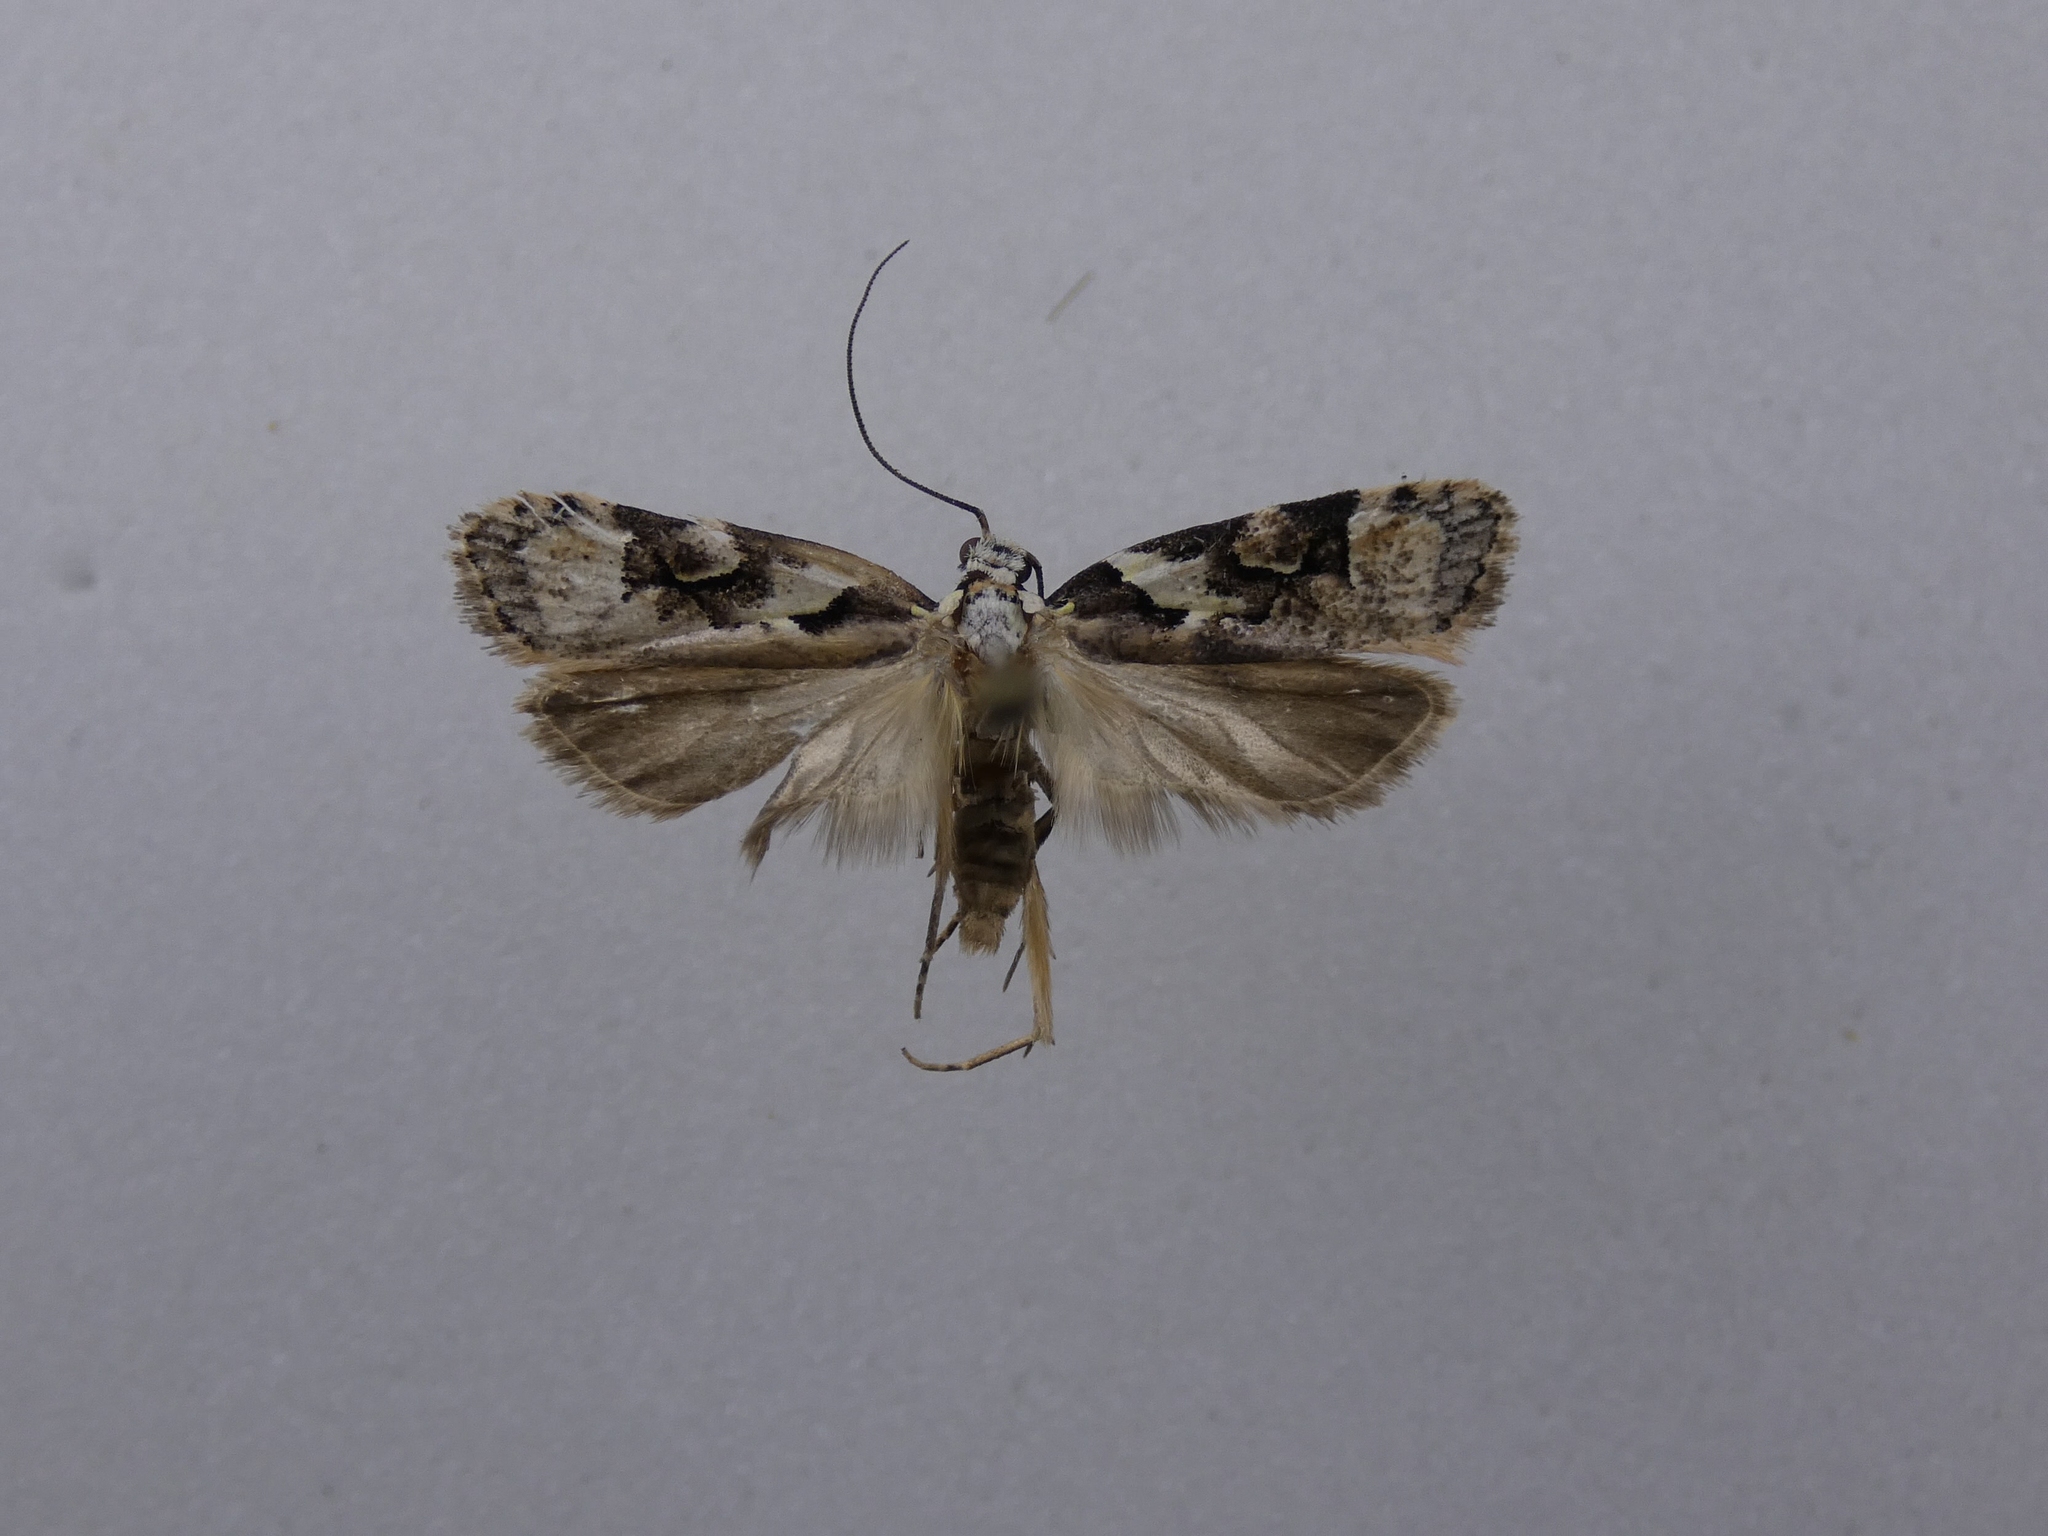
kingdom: Animalia
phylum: Arthropoda
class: Insecta
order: Lepidoptera
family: Oecophoridae
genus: Izatha
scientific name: Izatha epiphanes
